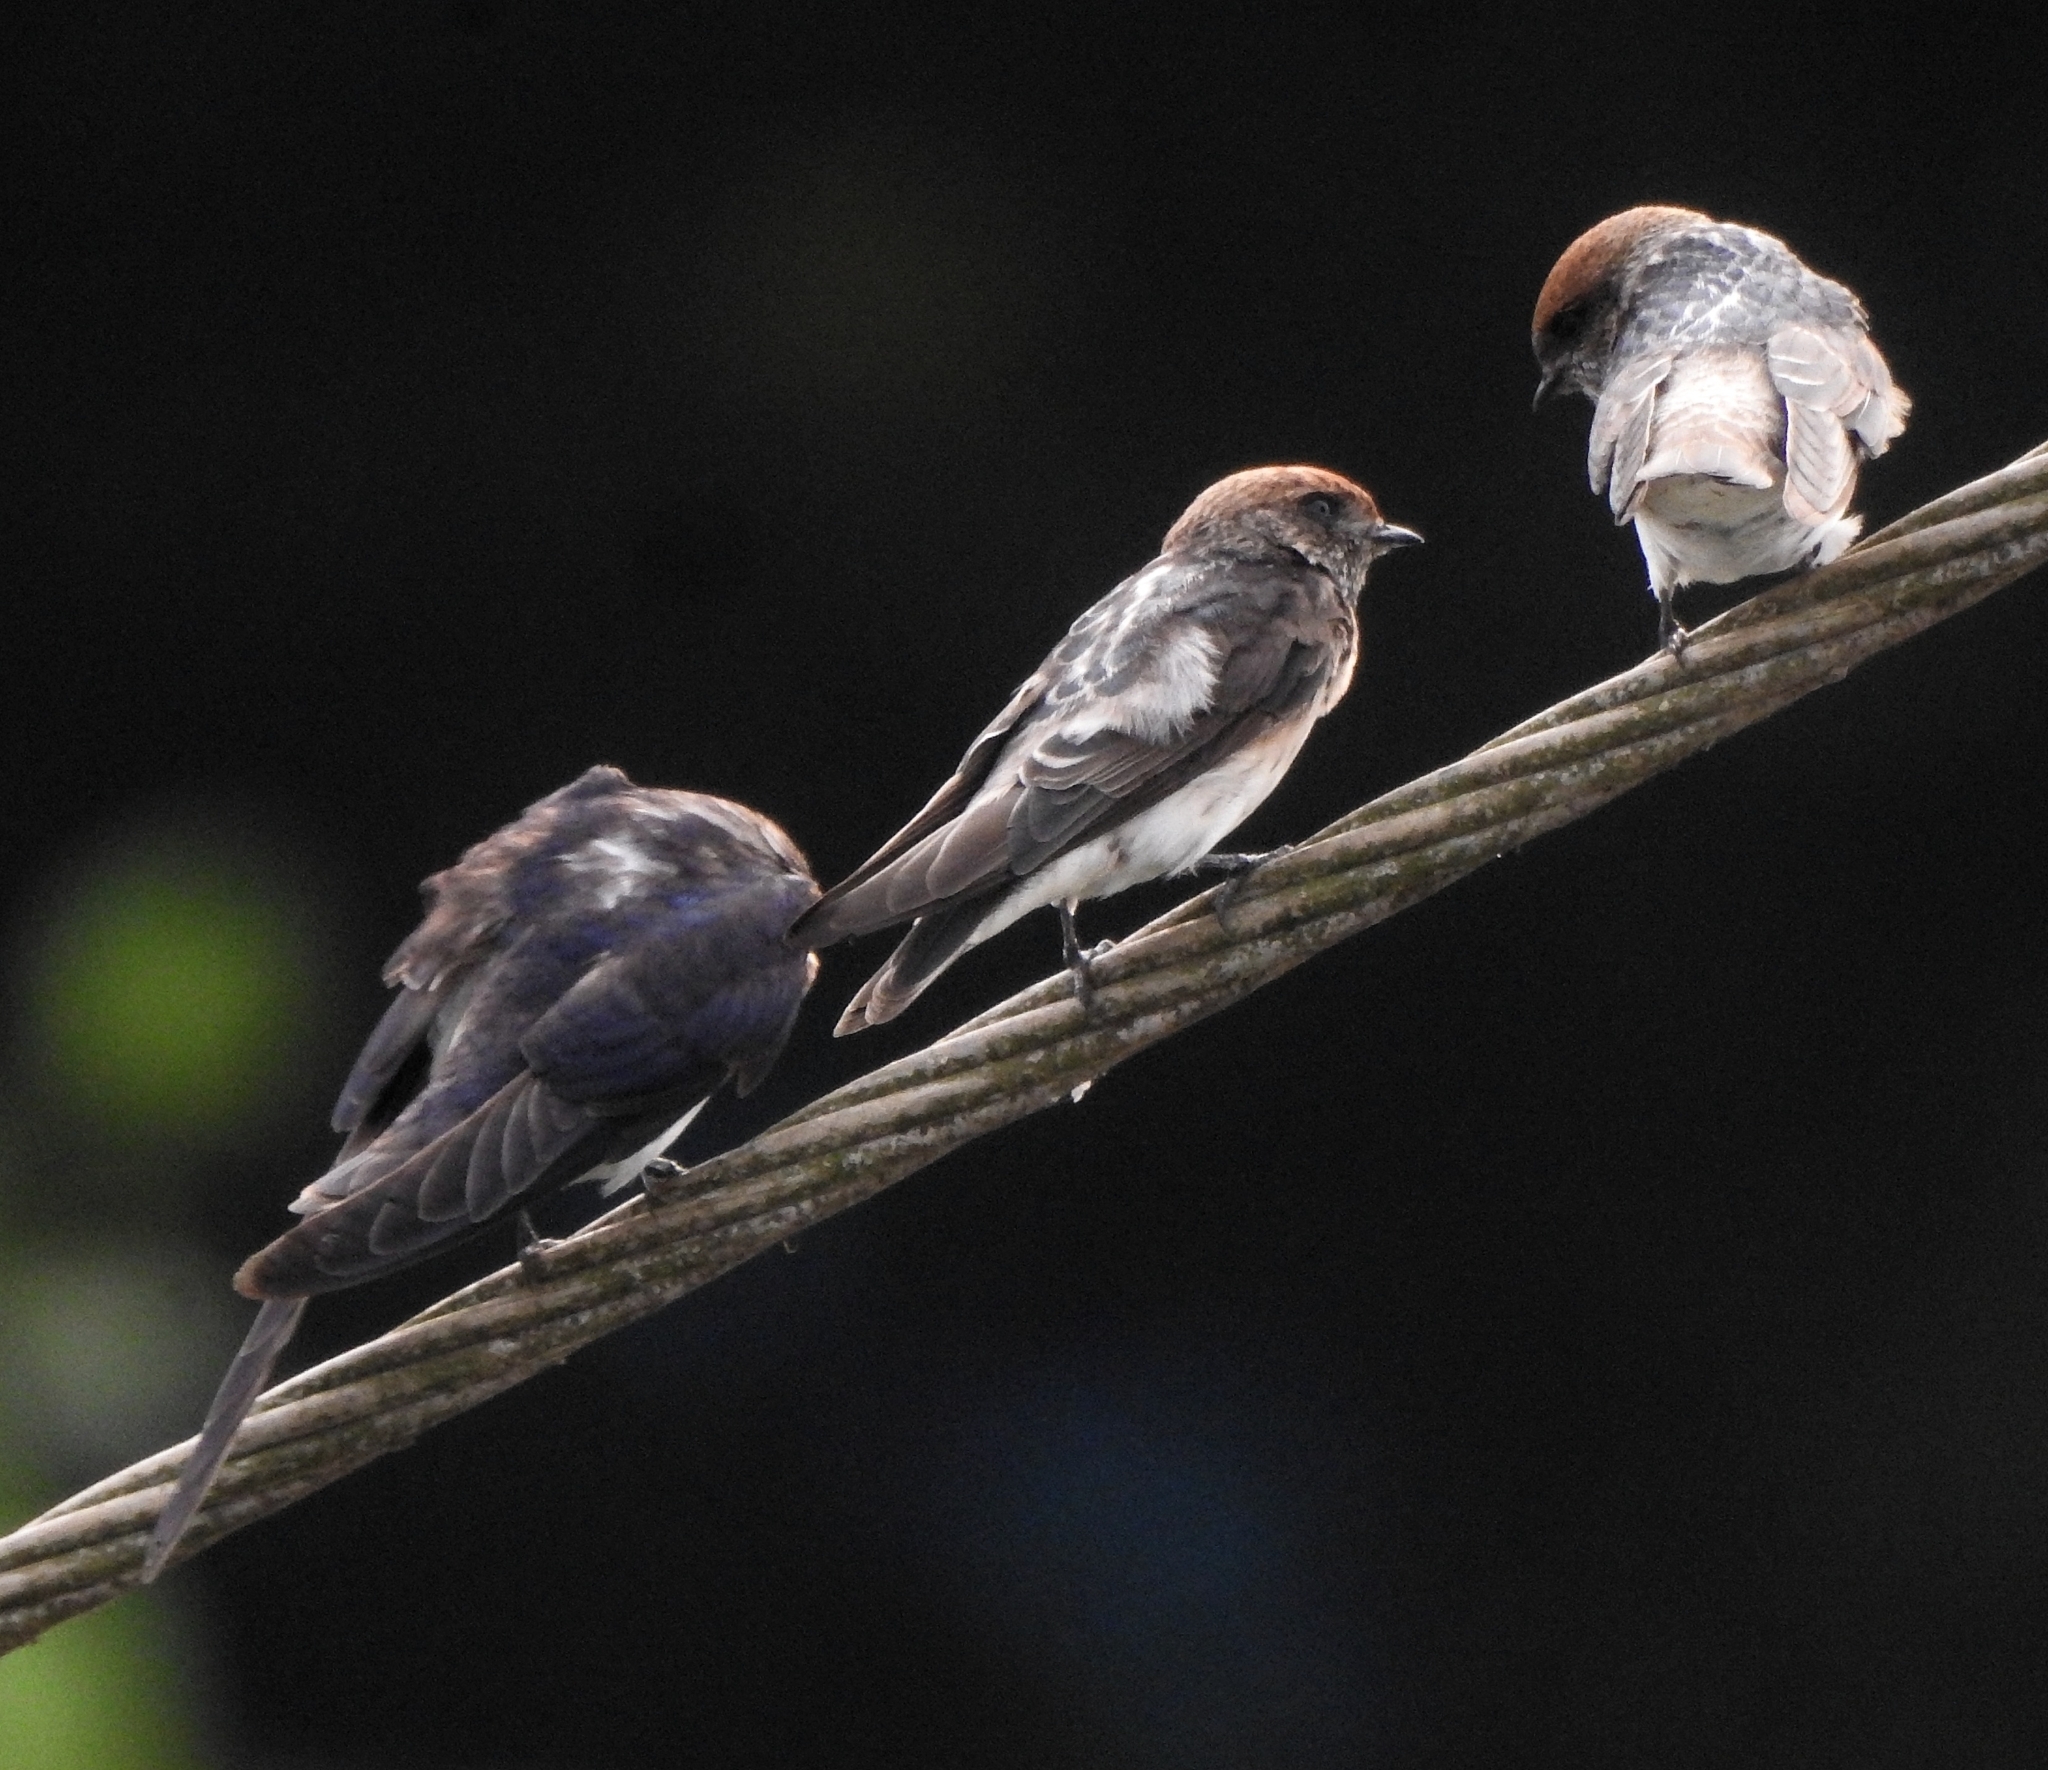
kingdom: Animalia
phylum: Chordata
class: Aves
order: Passeriformes
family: Hirundinidae
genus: Petrochelidon
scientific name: Petrochelidon fluvicola
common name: Streak-throated swallow
